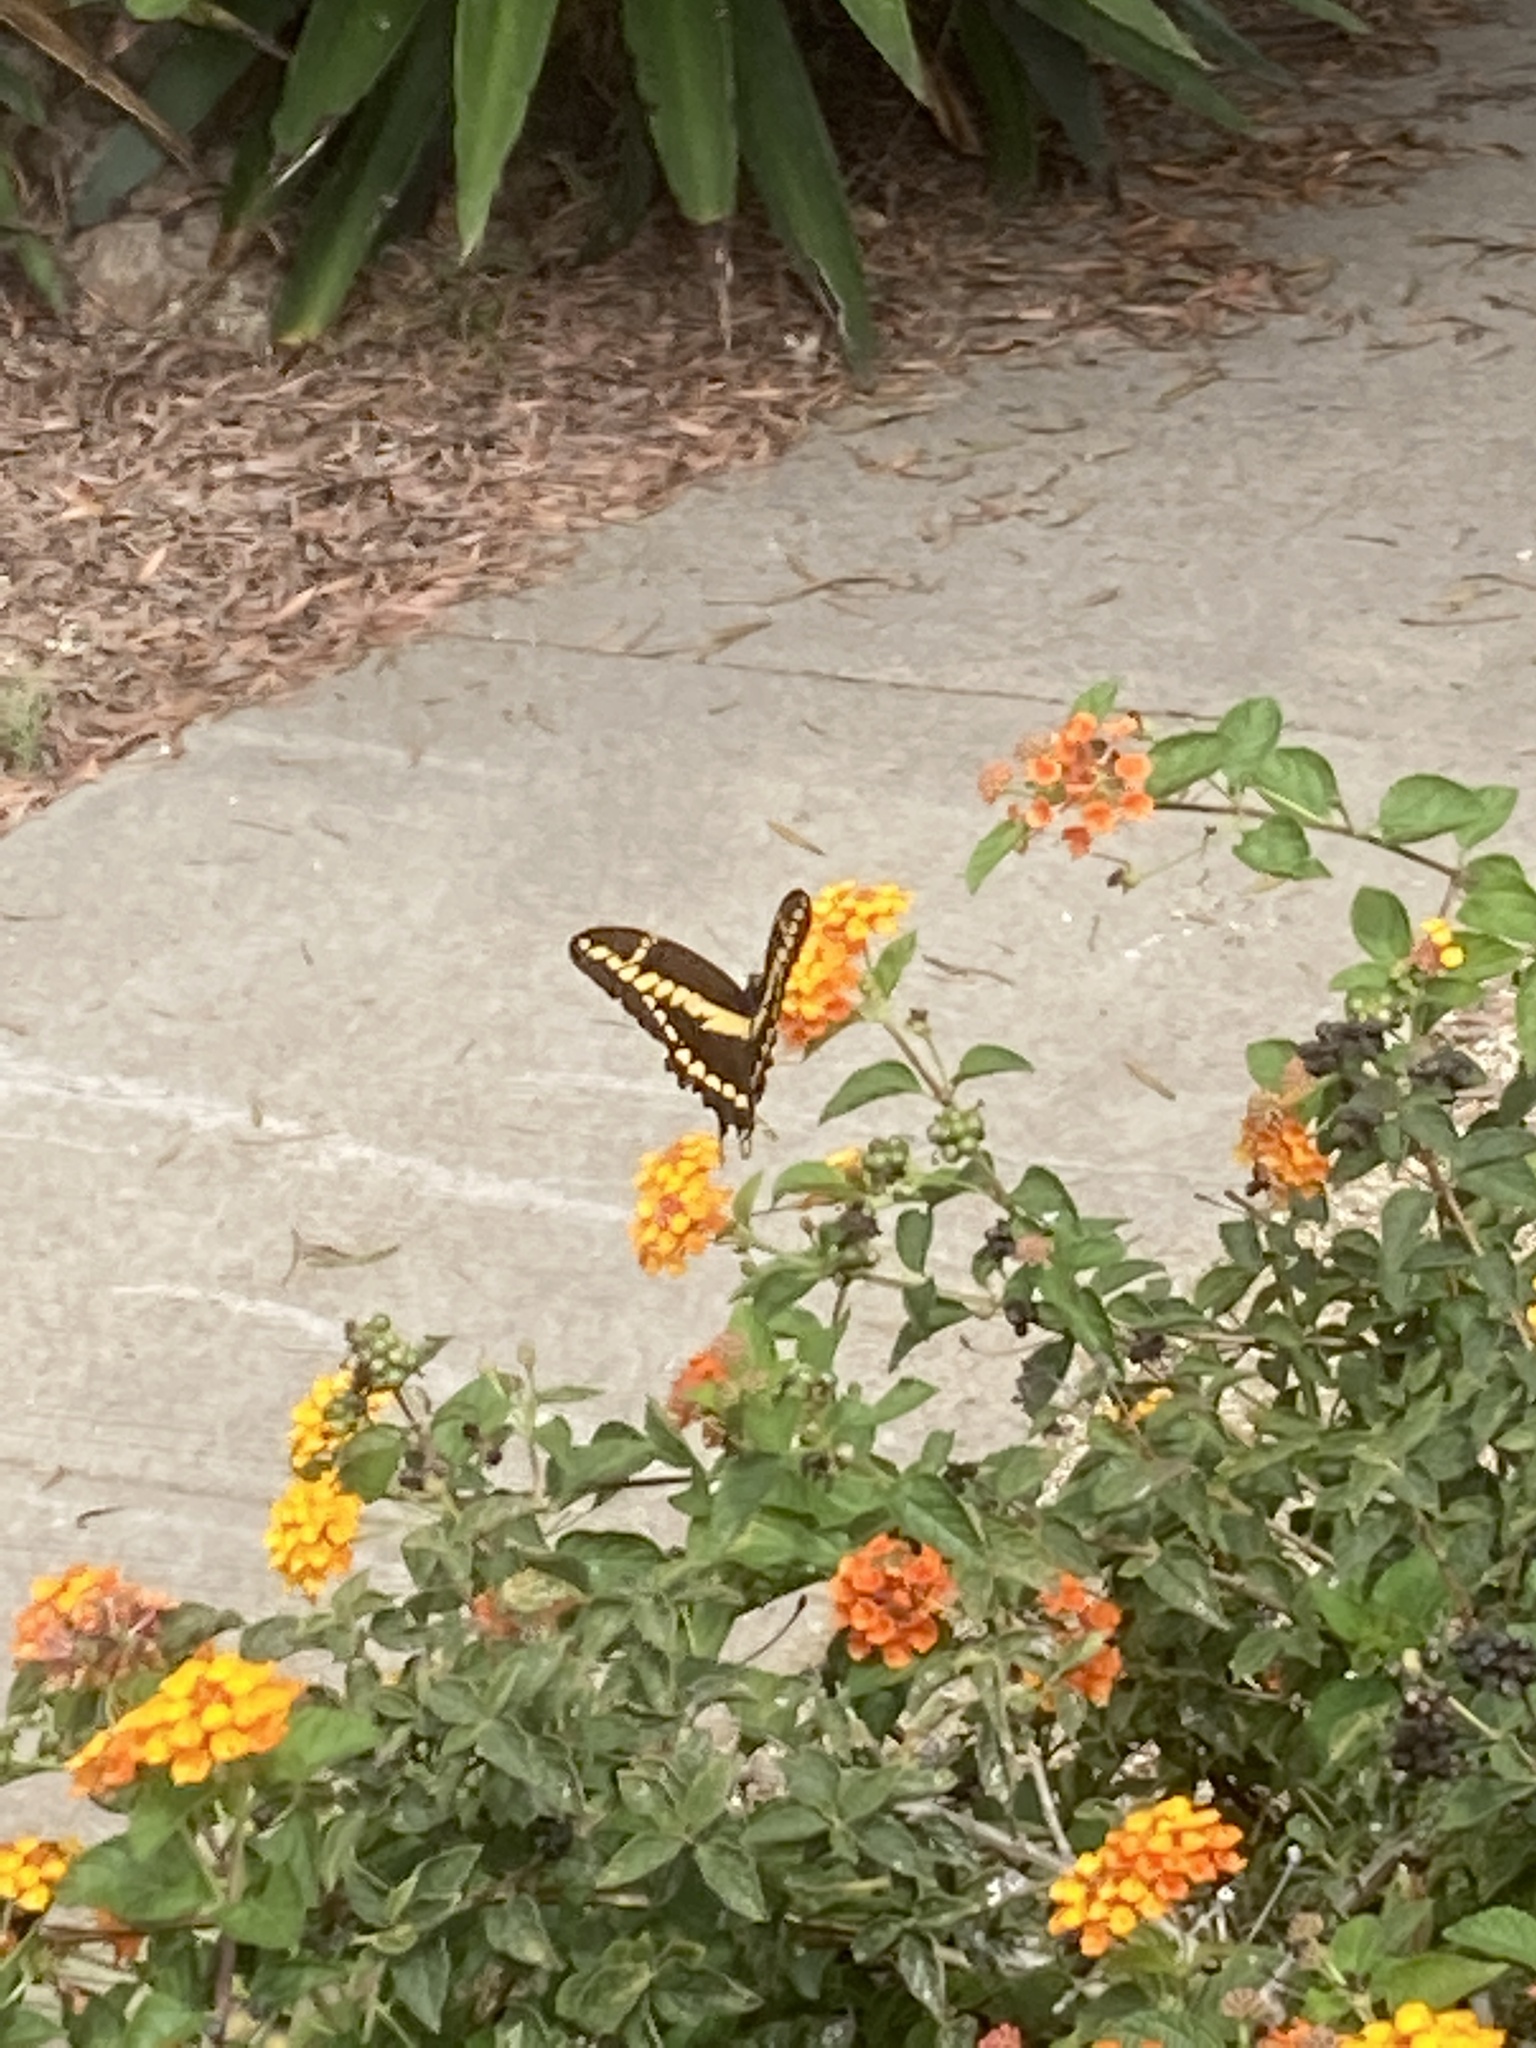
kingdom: Animalia
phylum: Arthropoda
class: Insecta
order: Lepidoptera
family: Papilionidae
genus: Papilio
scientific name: Papilio rumiko
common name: Western giant swallowtail
